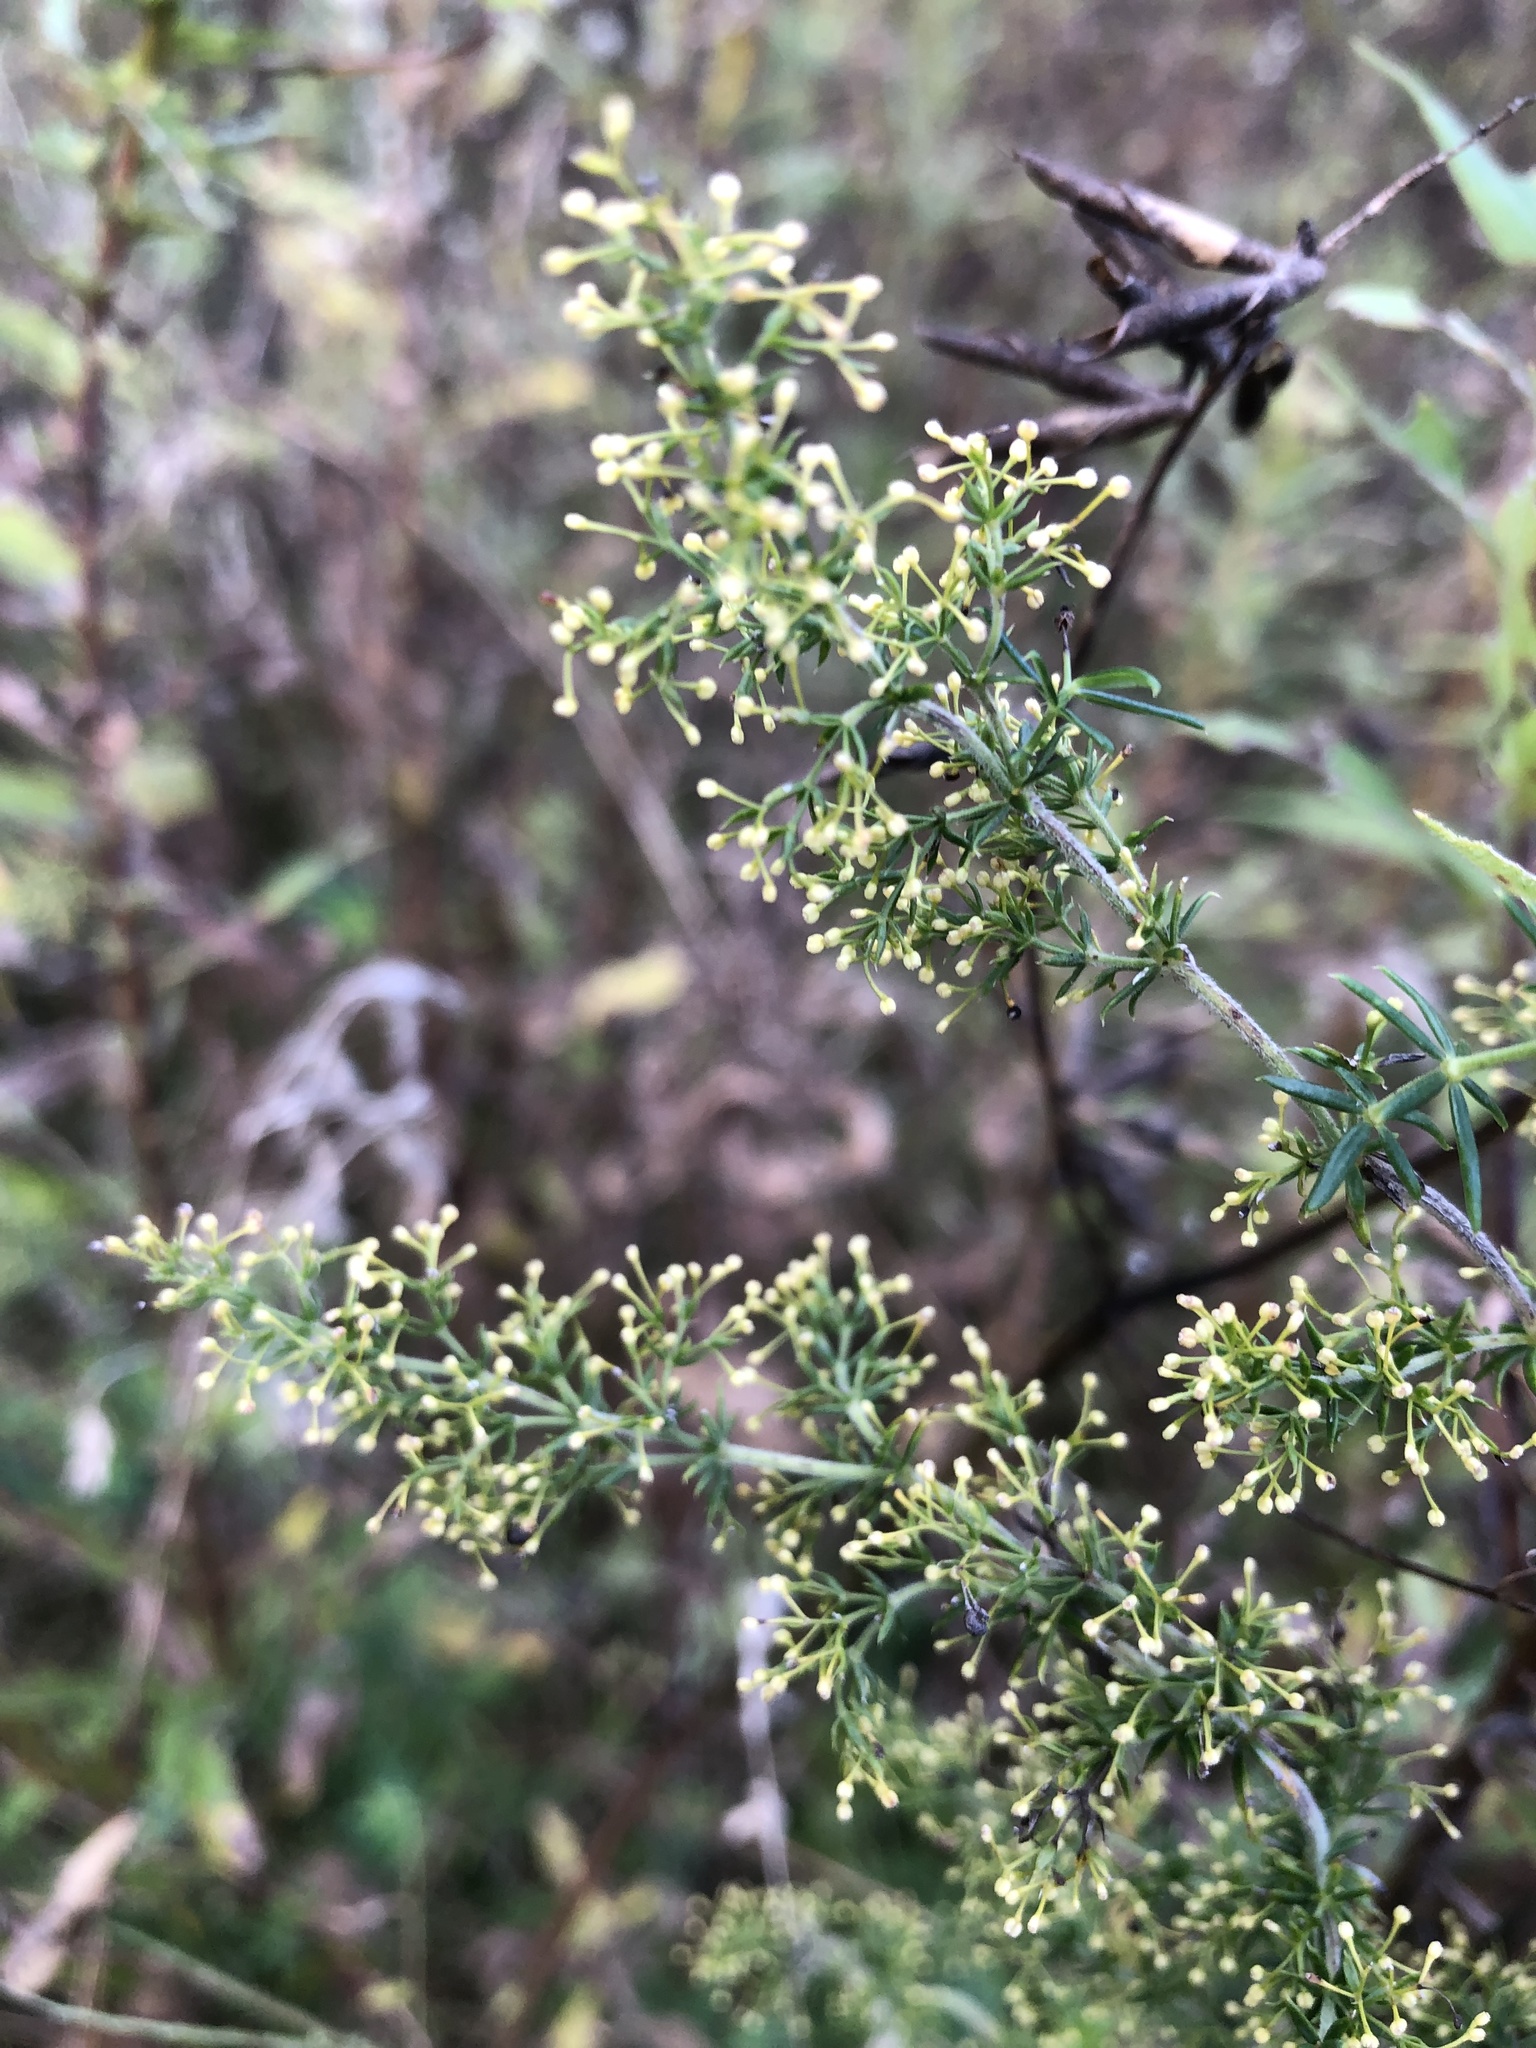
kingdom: Plantae
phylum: Tracheophyta
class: Magnoliopsida
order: Gentianales
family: Rubiaceae
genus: Galium
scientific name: Galium verum
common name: Lady's bedstraw
